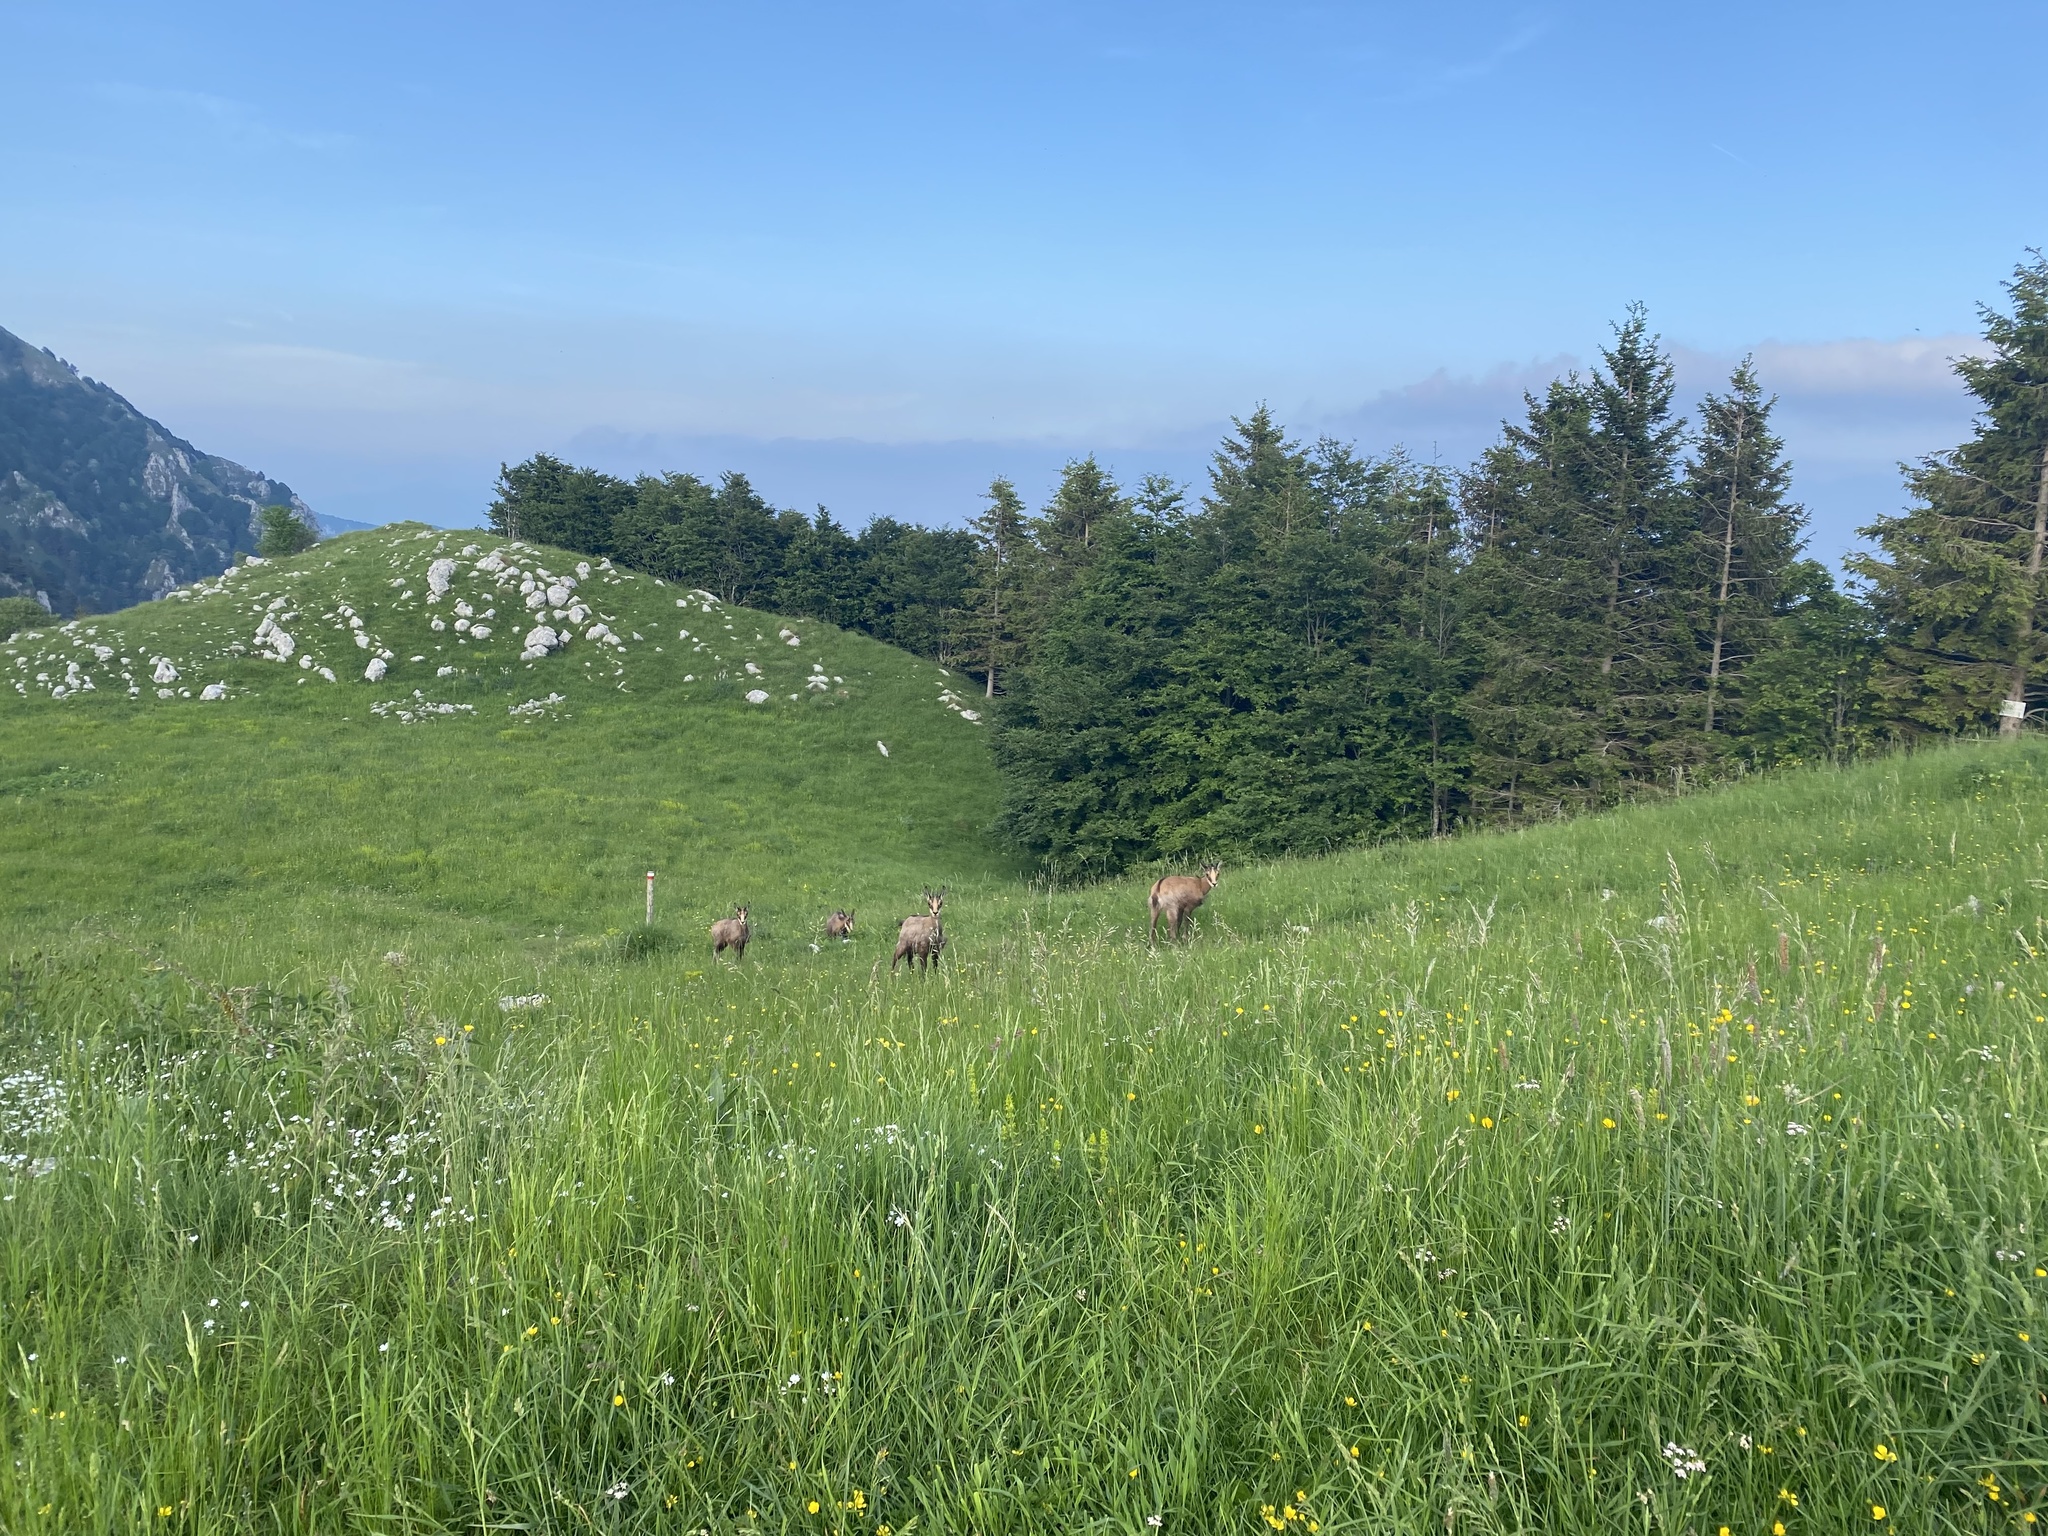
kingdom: Animalia
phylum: Chordata
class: Mammalia
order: Artiodactyla
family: Bovidae
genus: Rupicapra
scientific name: Rupicapra rupicapra
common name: Chamois
